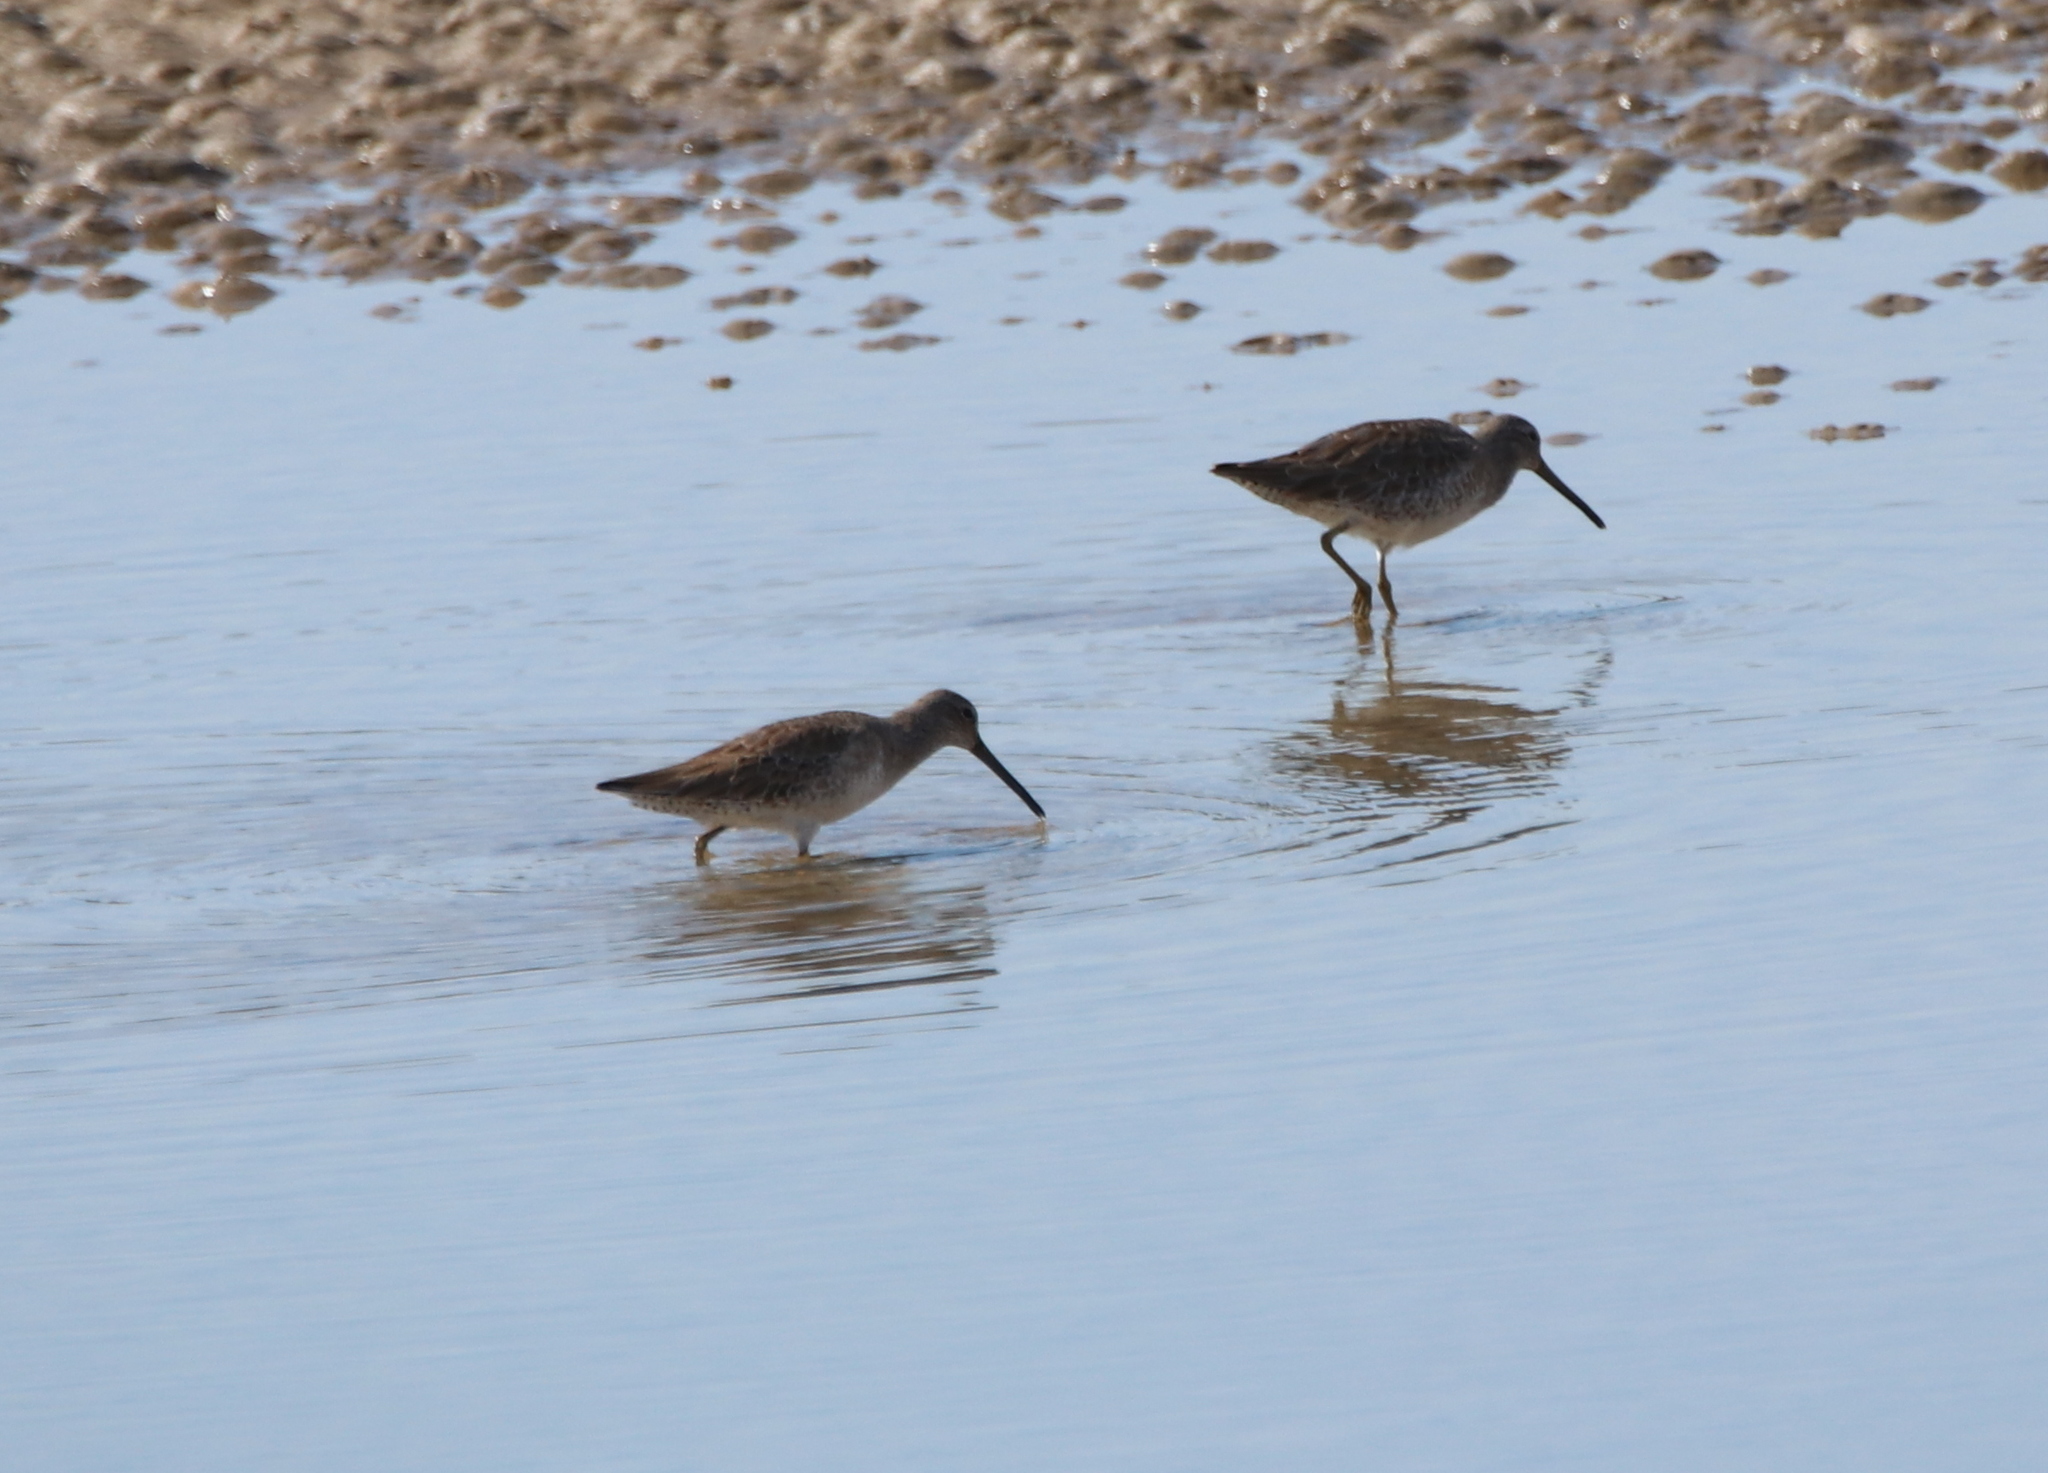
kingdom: Animalia
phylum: Chordata
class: Aves
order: Charadriiformes
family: Scolopacidae
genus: Limnodromus
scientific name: Limnodromus griseus
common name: Short-billed dowitcher
